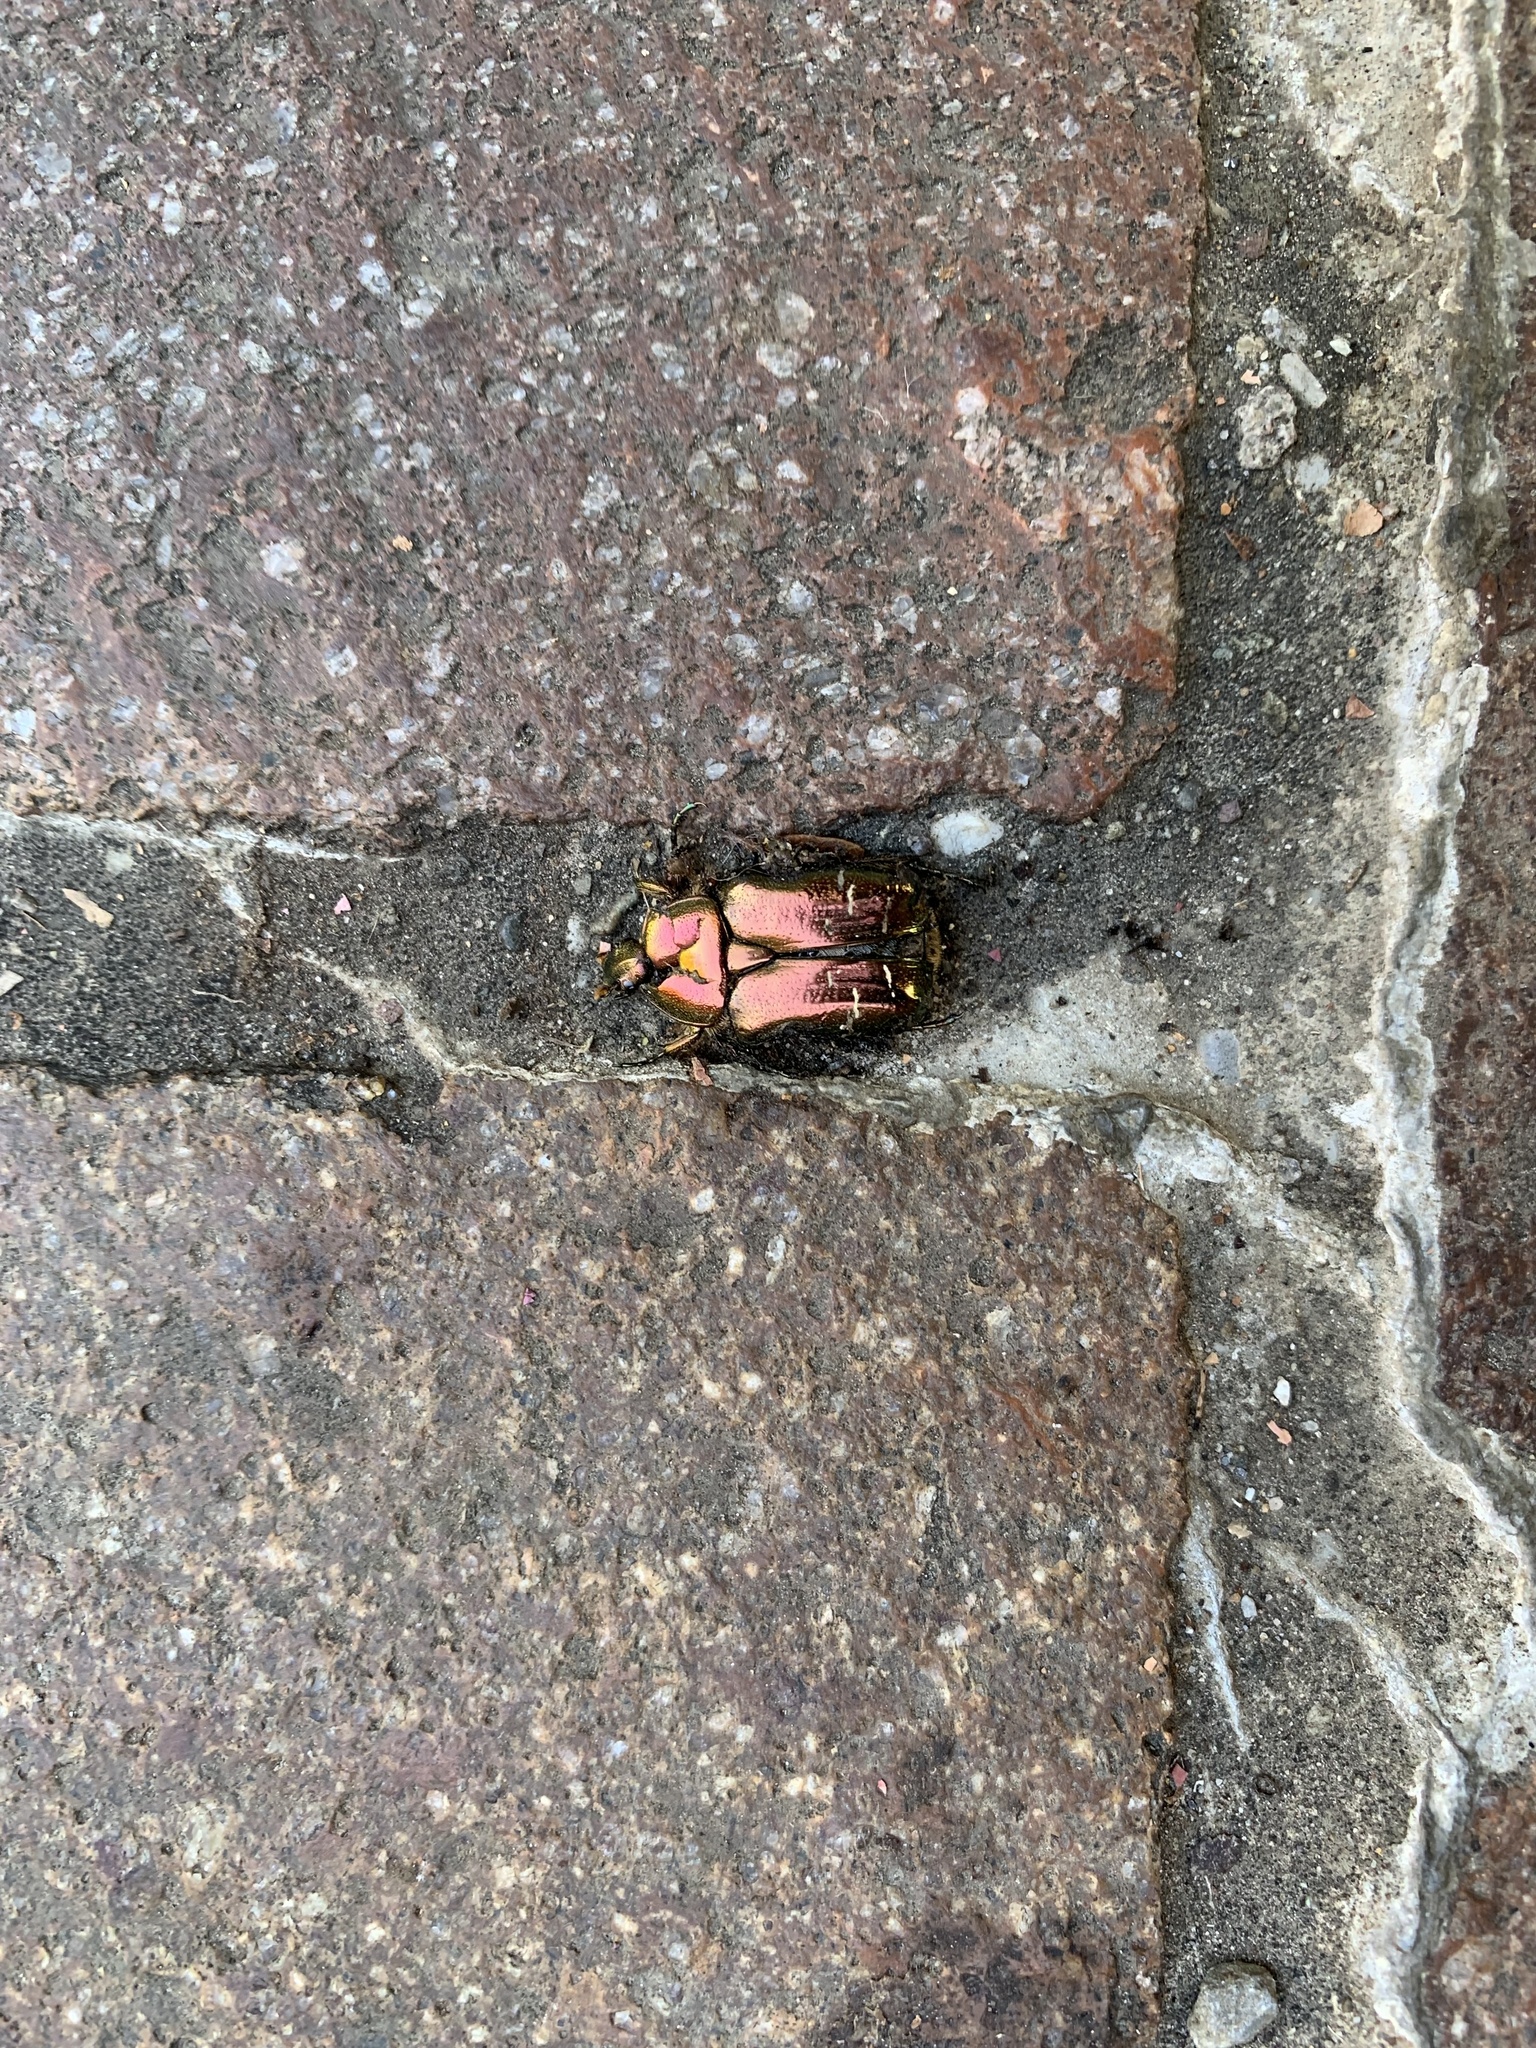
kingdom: Animalia
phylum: Arthropoda
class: Insecta
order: Coleoptera
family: Scarabaeidae
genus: Cetonia
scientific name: Cetonia aurata
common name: Rose chafer
